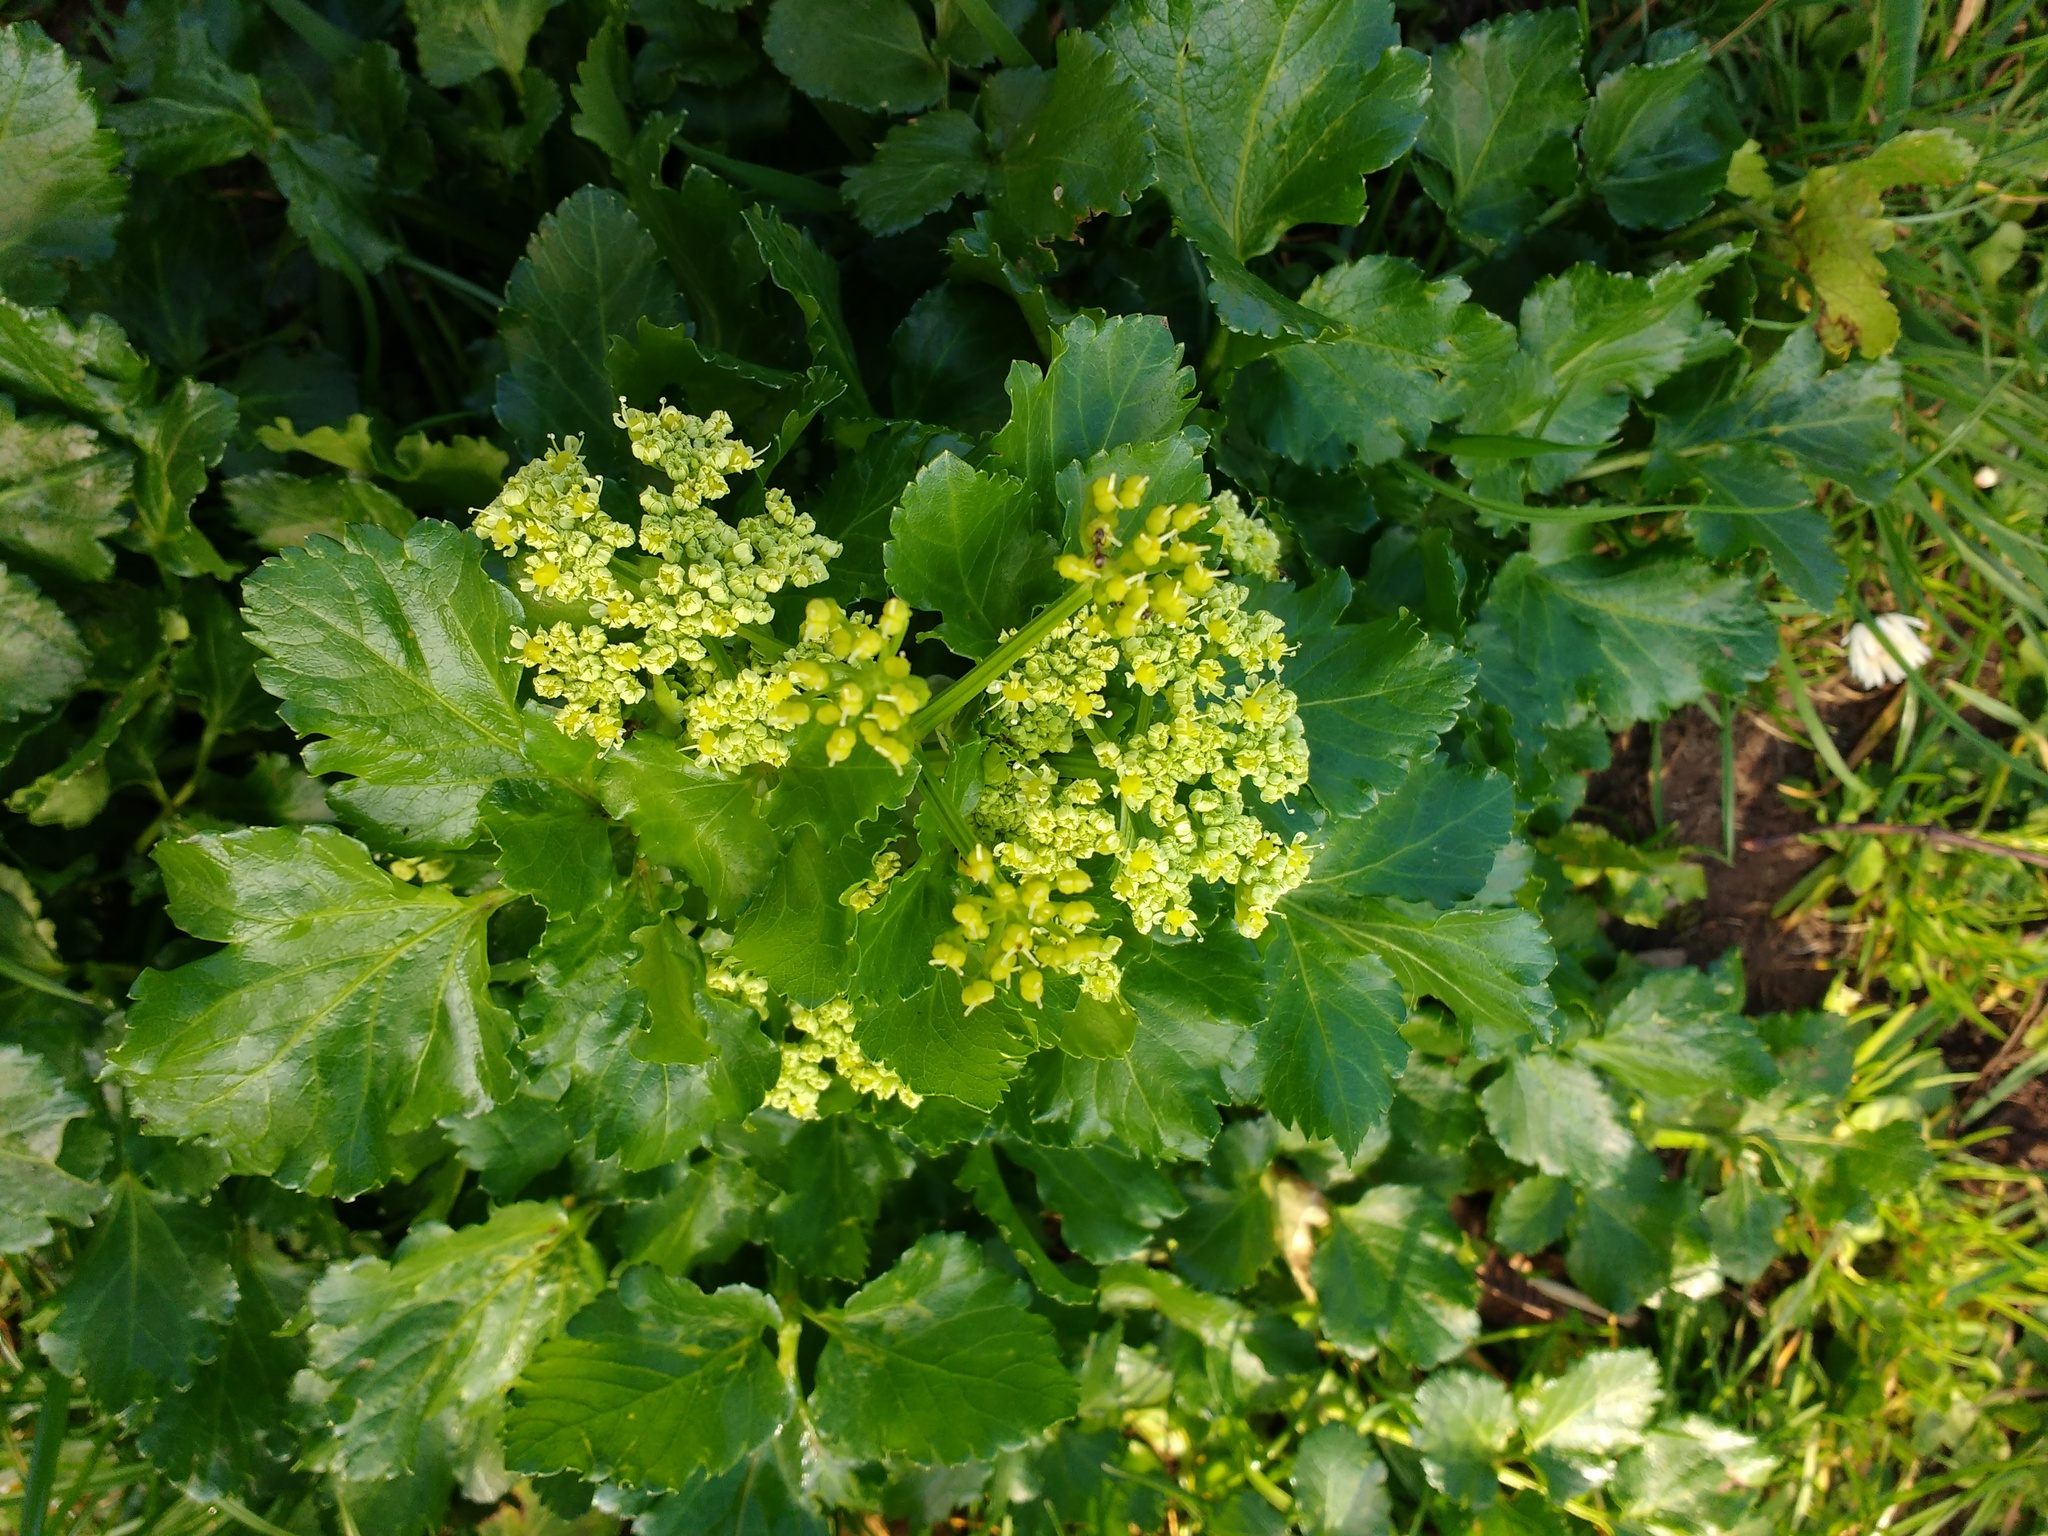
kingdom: Plantae
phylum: Tracheophyta
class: Magnoliopsida
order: Apiales
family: Apiaceae
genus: Smyrnium
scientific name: Smyrnium olusatrum
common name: Alexanders
